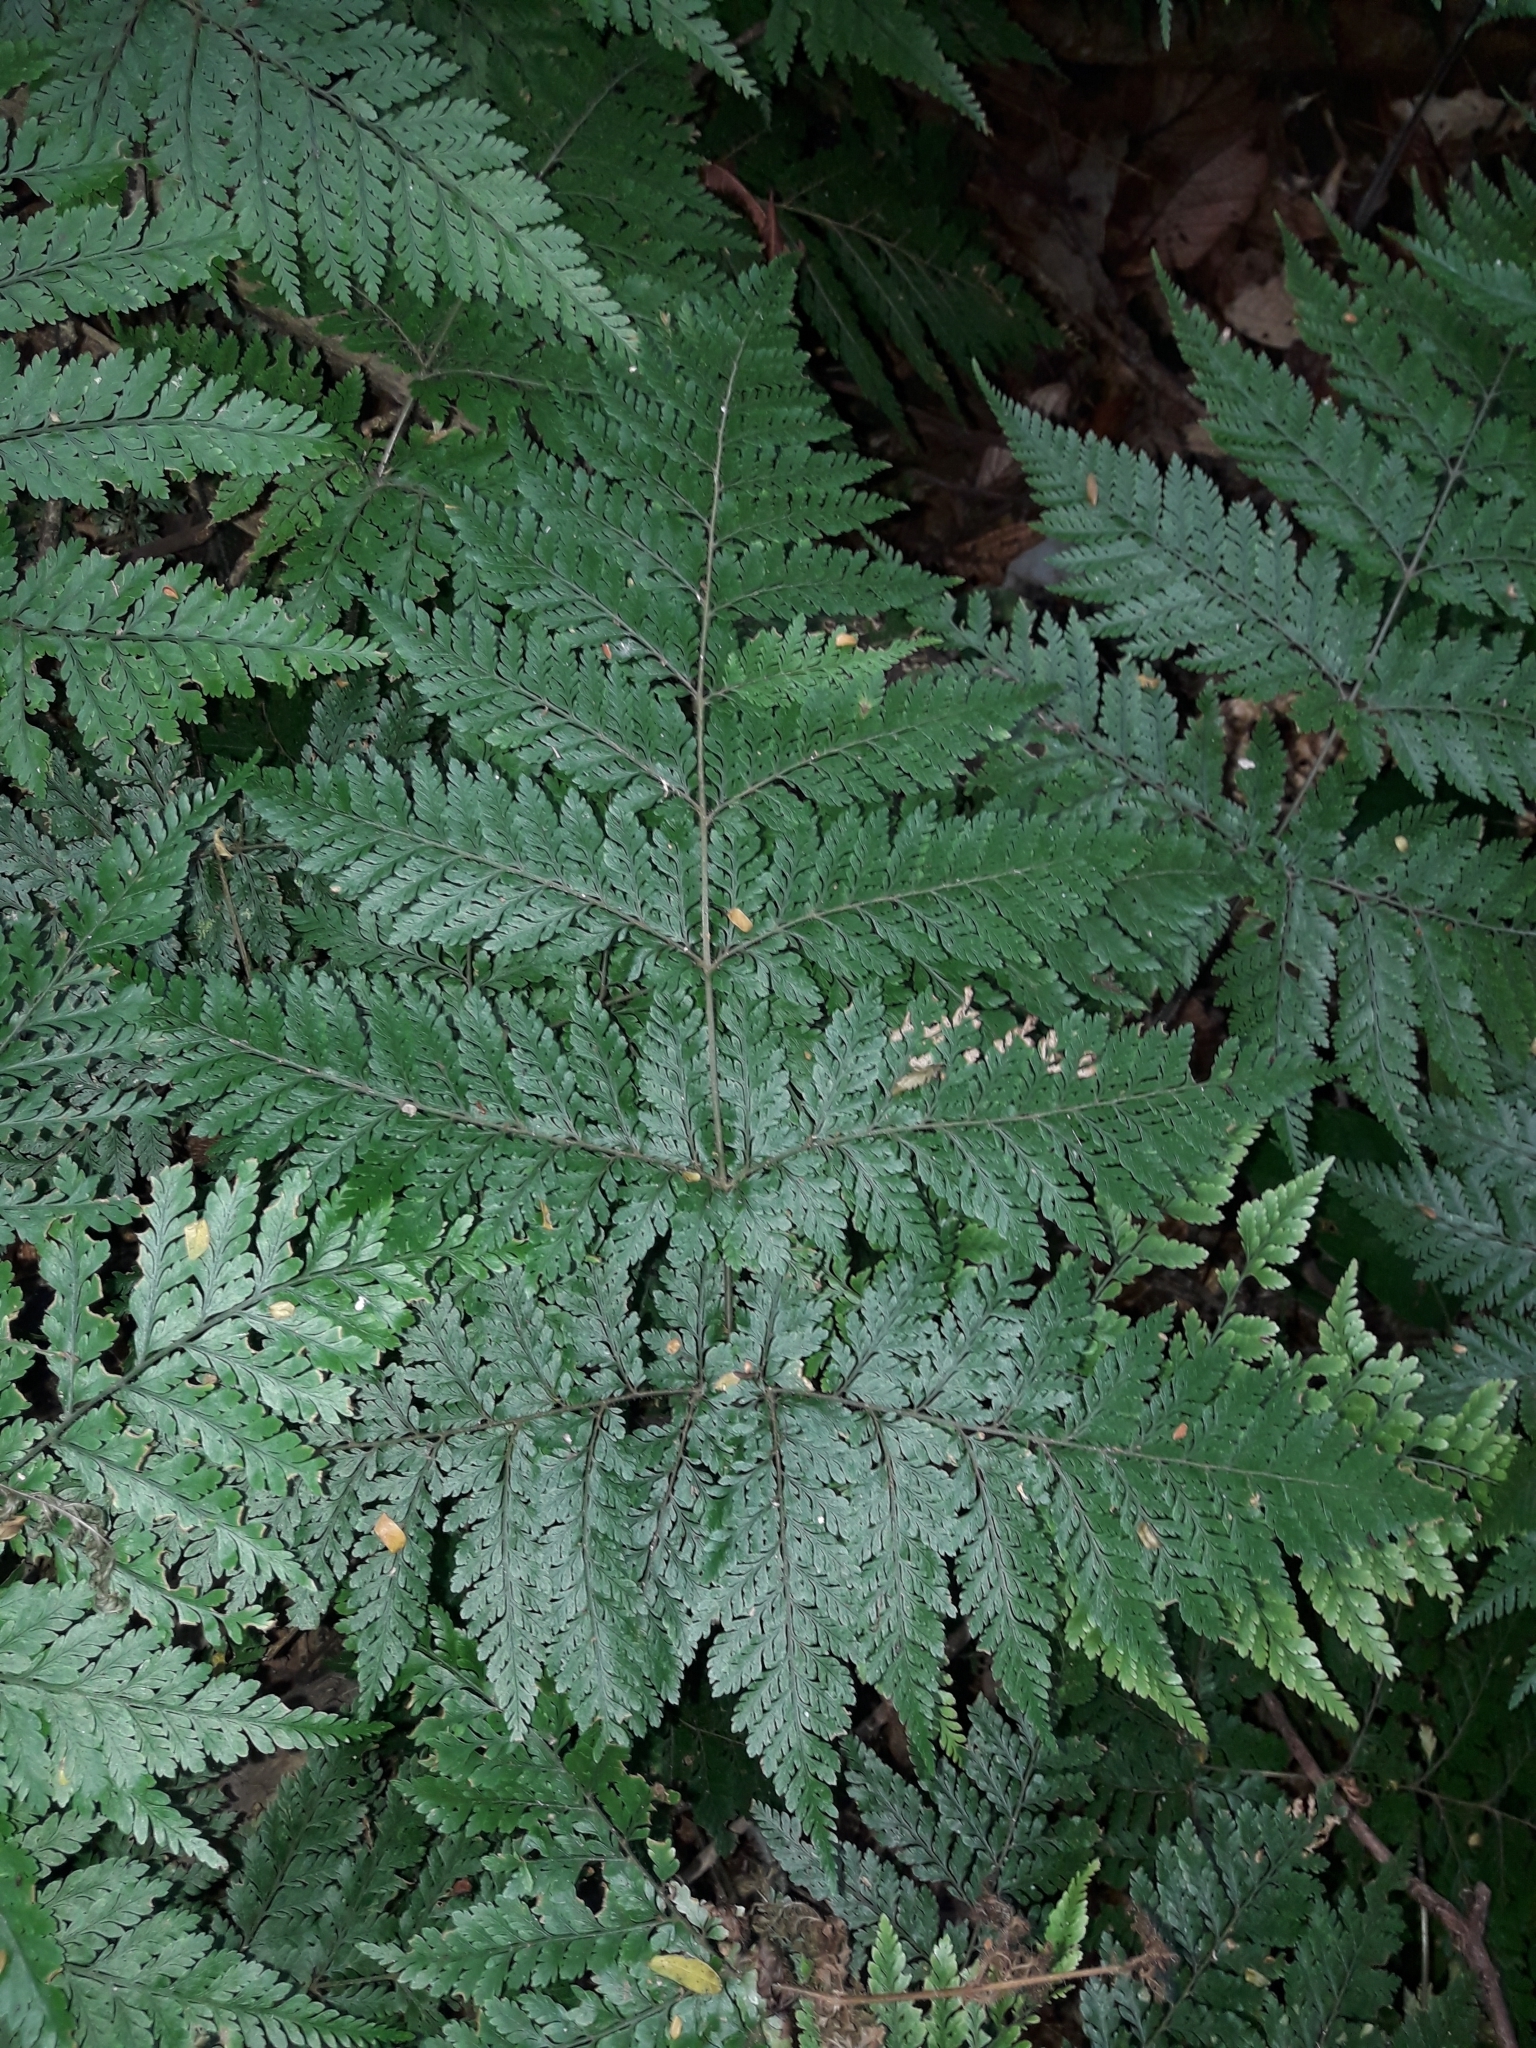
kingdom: Plantae
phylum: Tracheophyta
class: Polypodiopsida
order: Polypodiales
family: Dryopteridaceae
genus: Lastreopsis
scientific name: Lastreopsis subsericea
